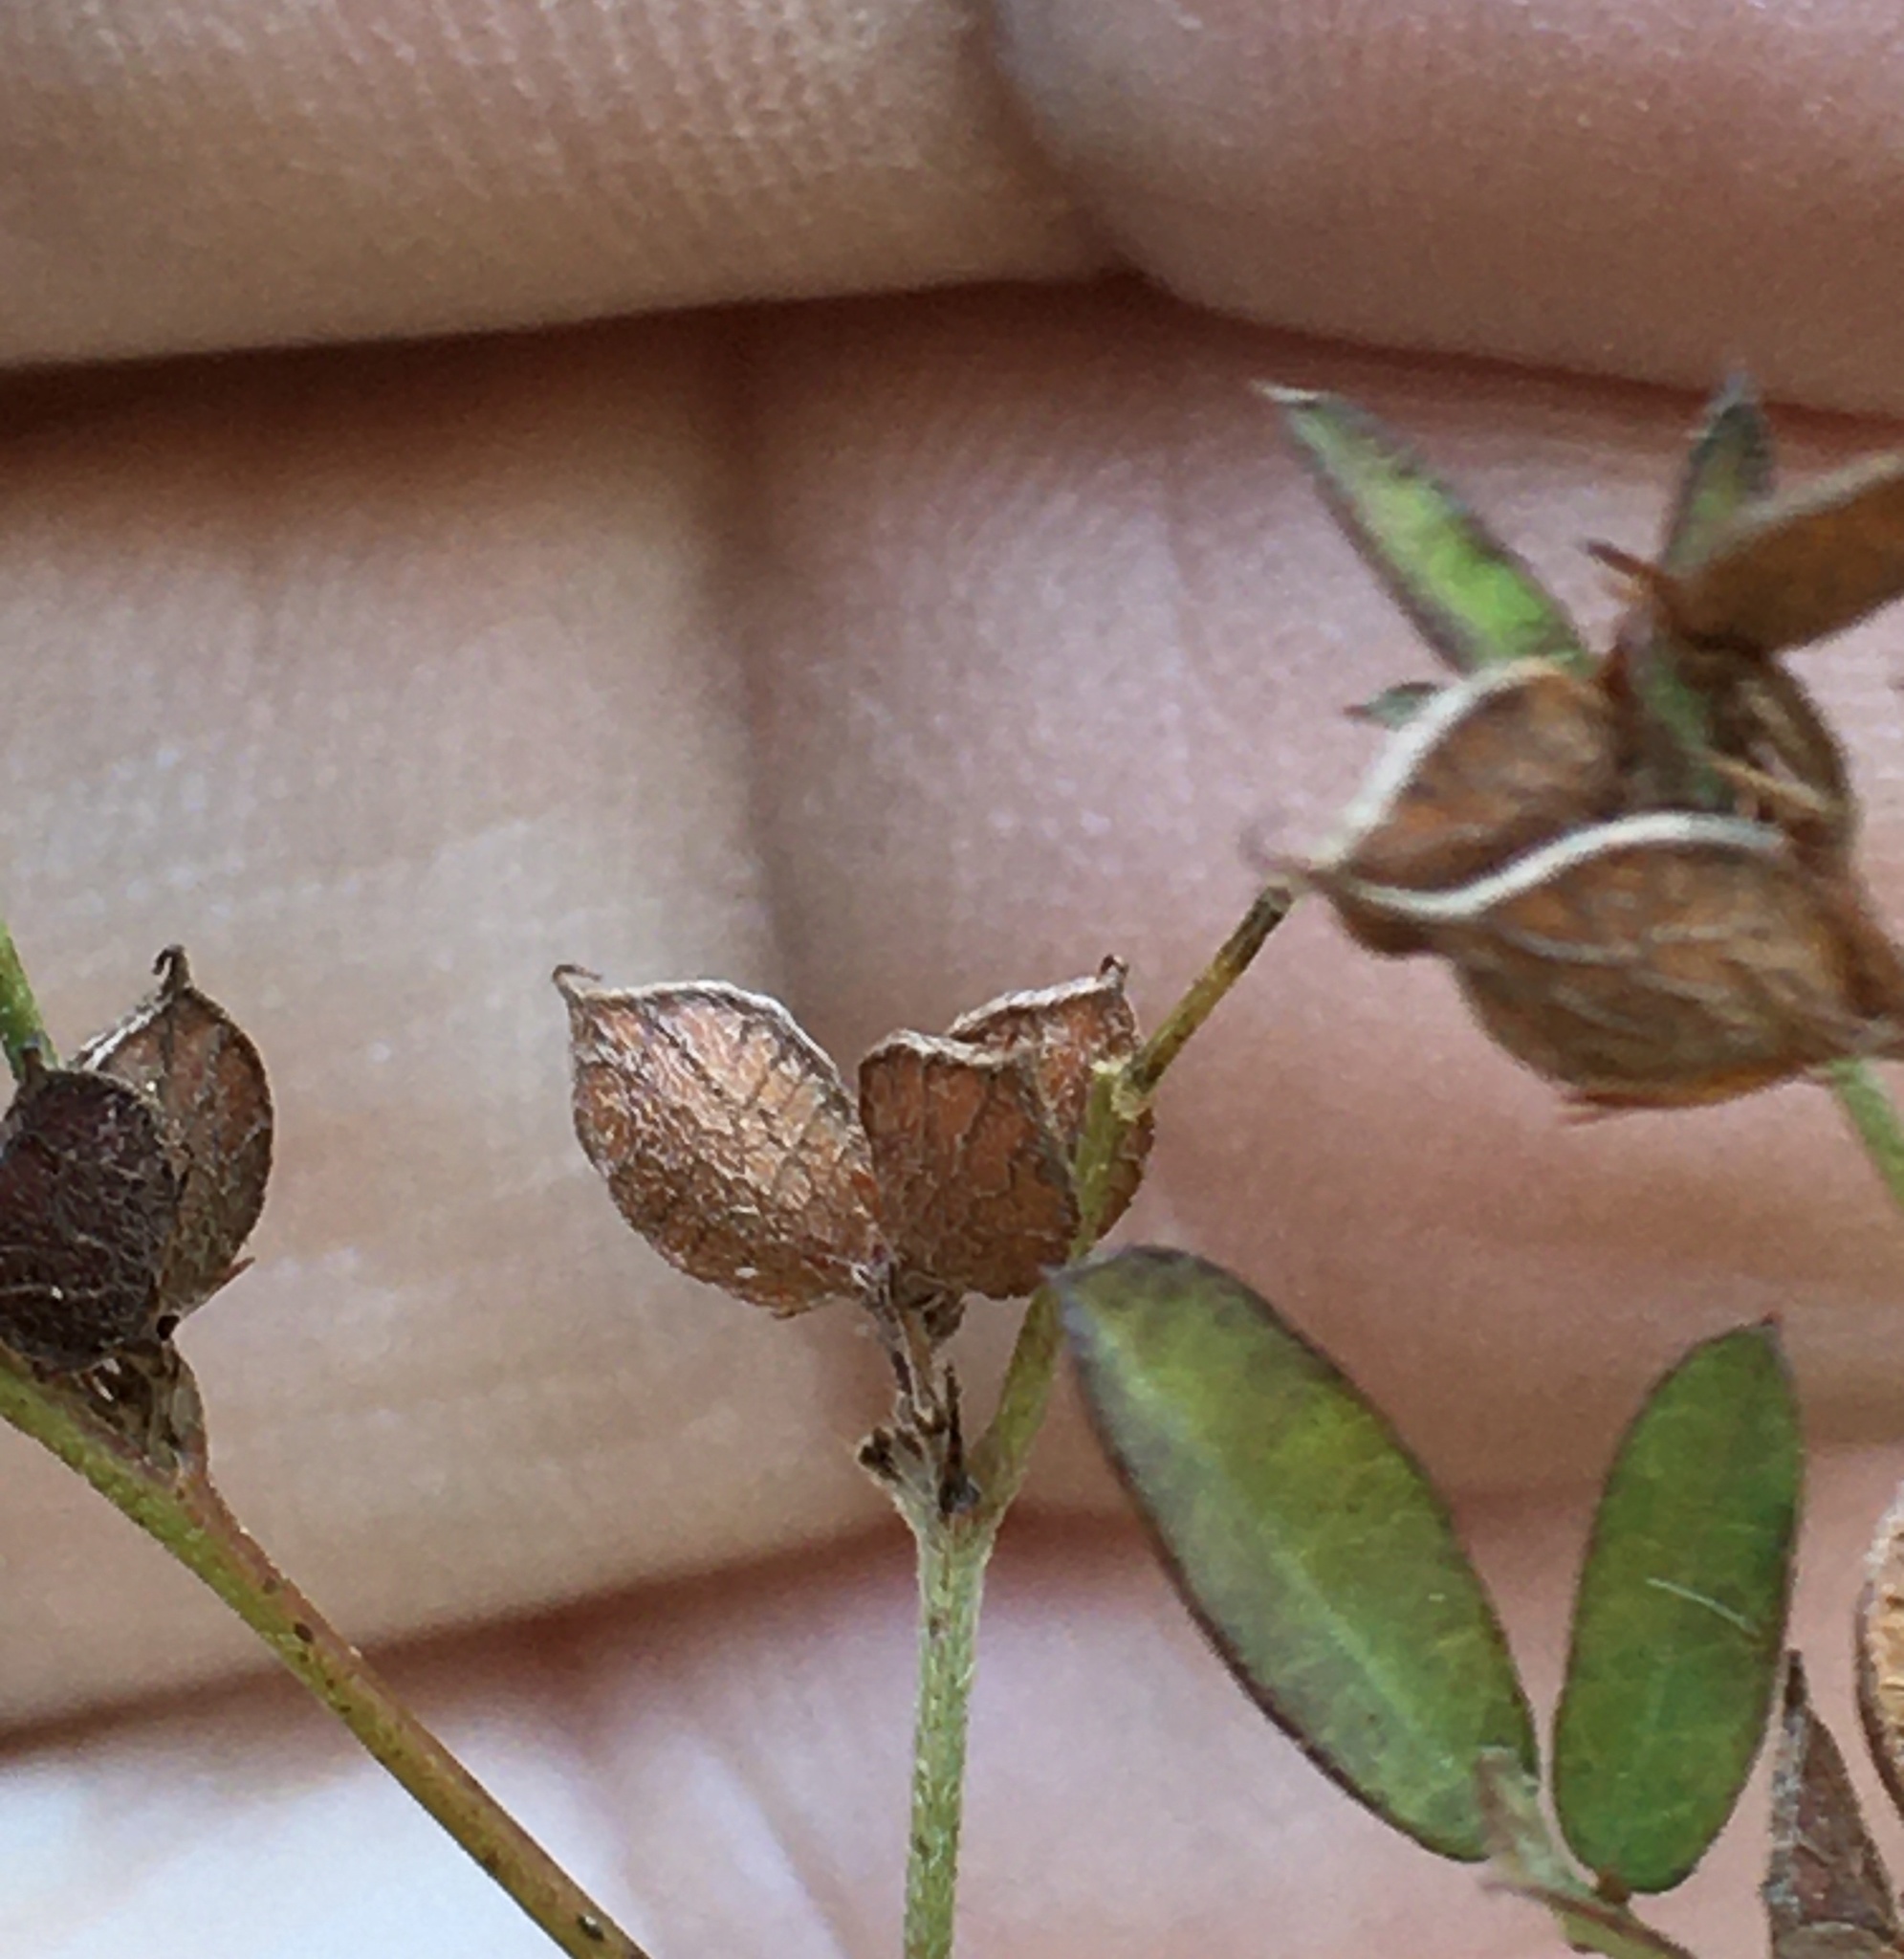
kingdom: Plantae
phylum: Tracheophyta
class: Magnoliopsida
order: Fabales
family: Fabaceae
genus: Lespedeza
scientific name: Lespedeza virginica
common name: Slender bush-clover
